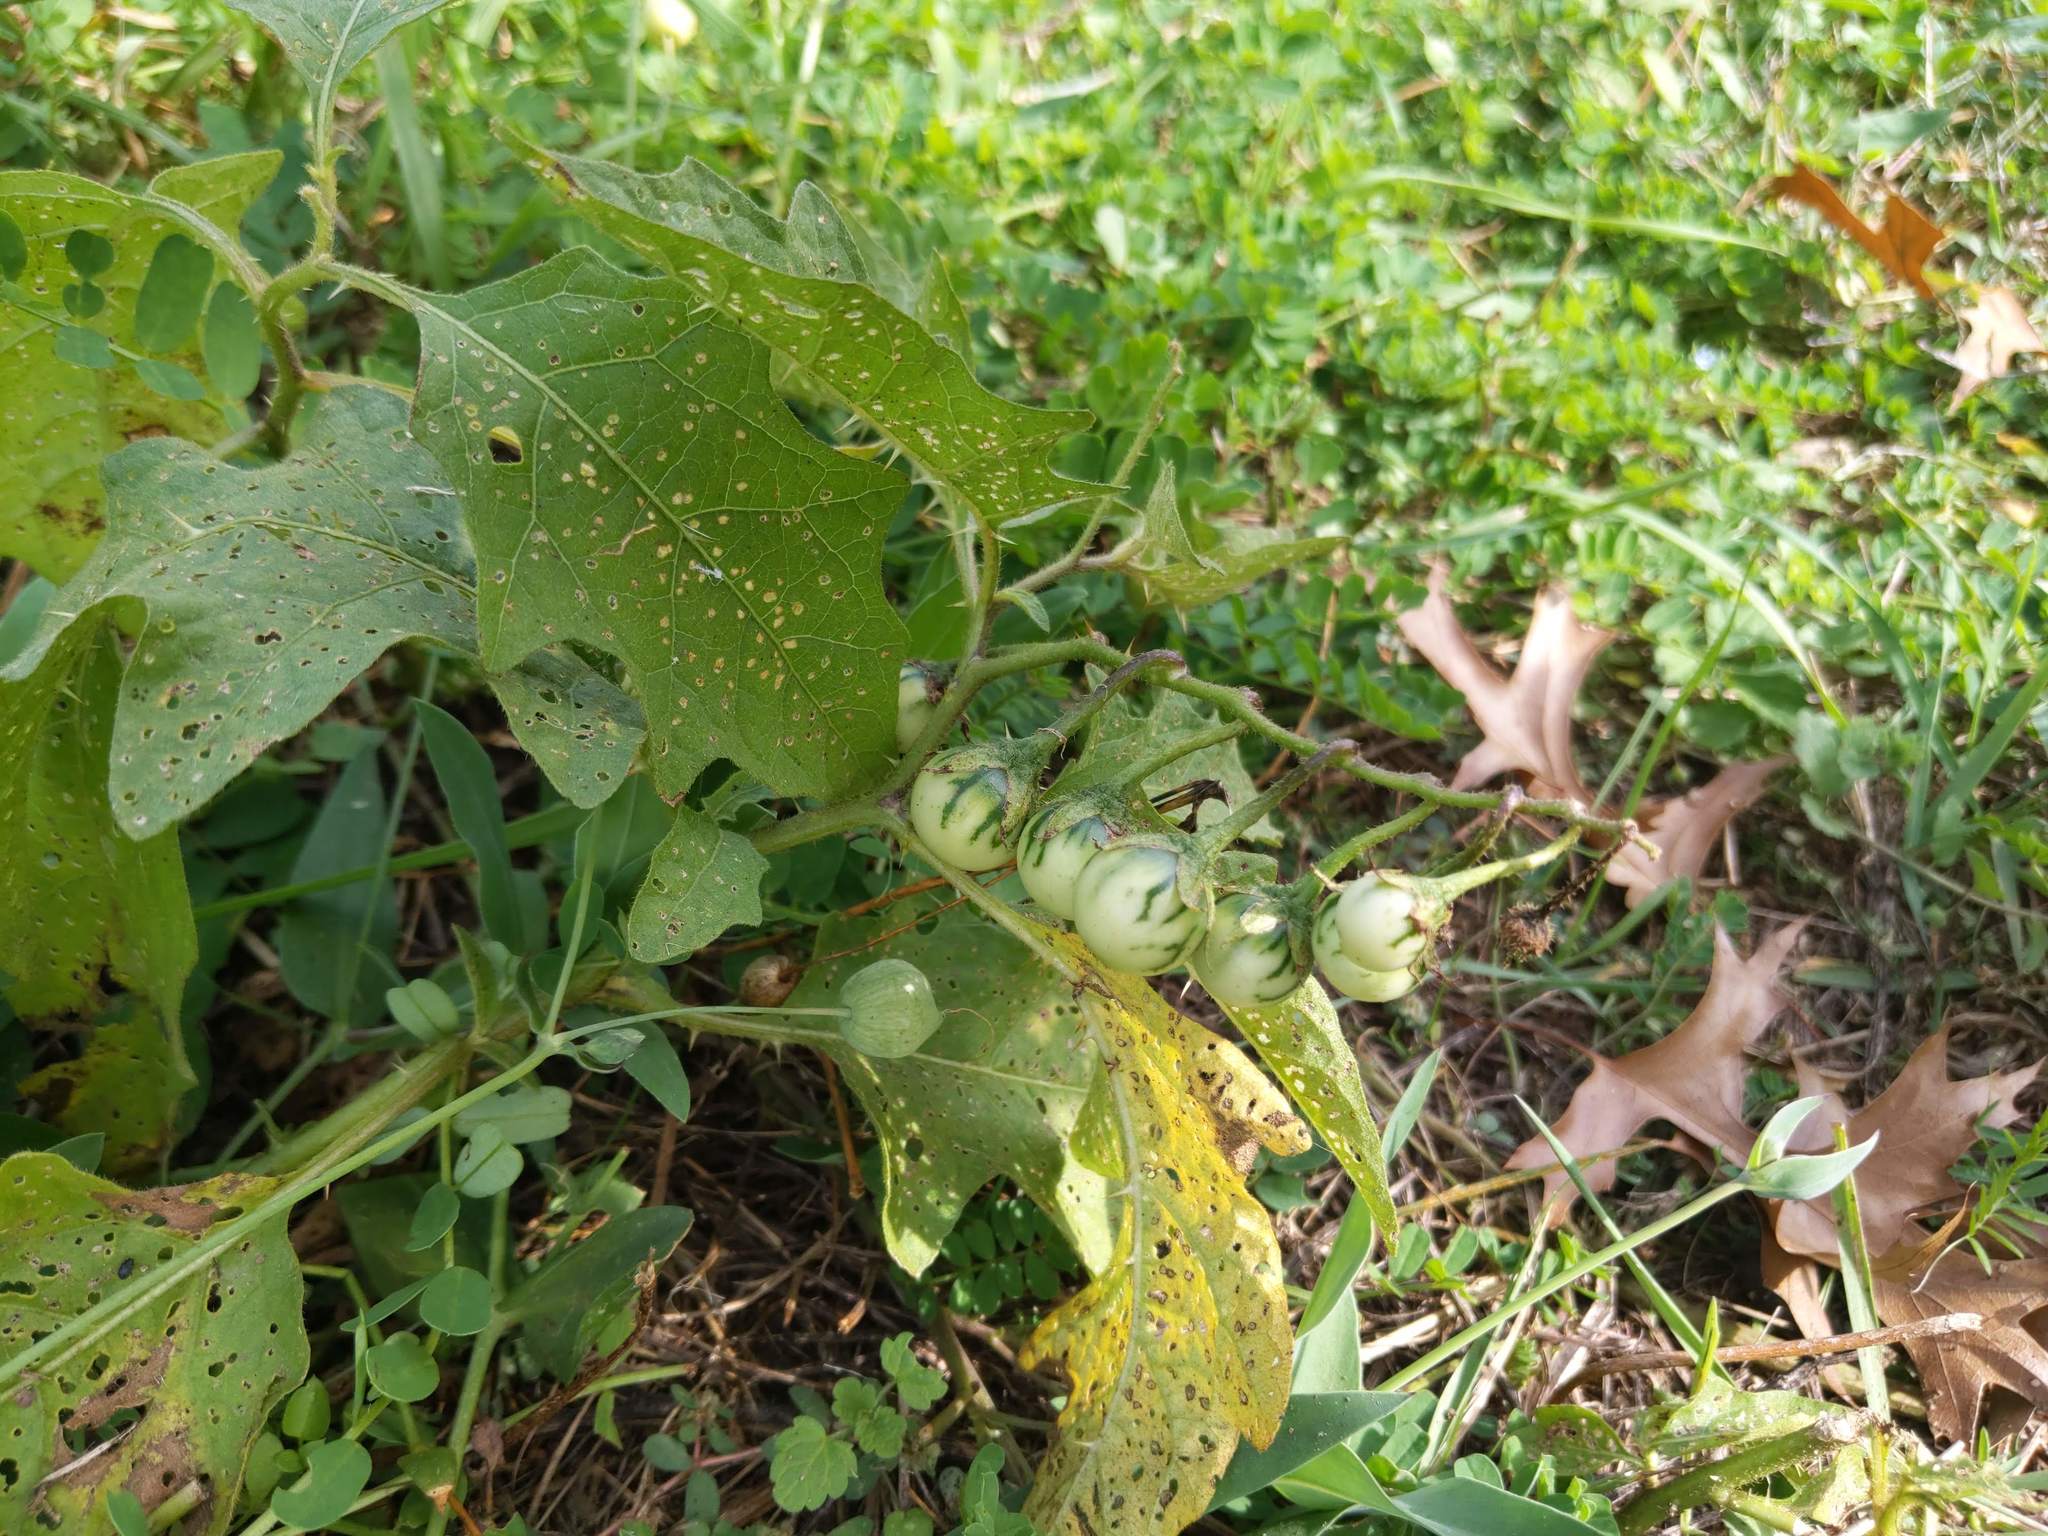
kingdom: Plantae
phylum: Tracheophyta
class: Magnoliopsida
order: Solanales
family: Solanaceae
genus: Solanum
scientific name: Solanum carolinense
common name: Horse-nettle
